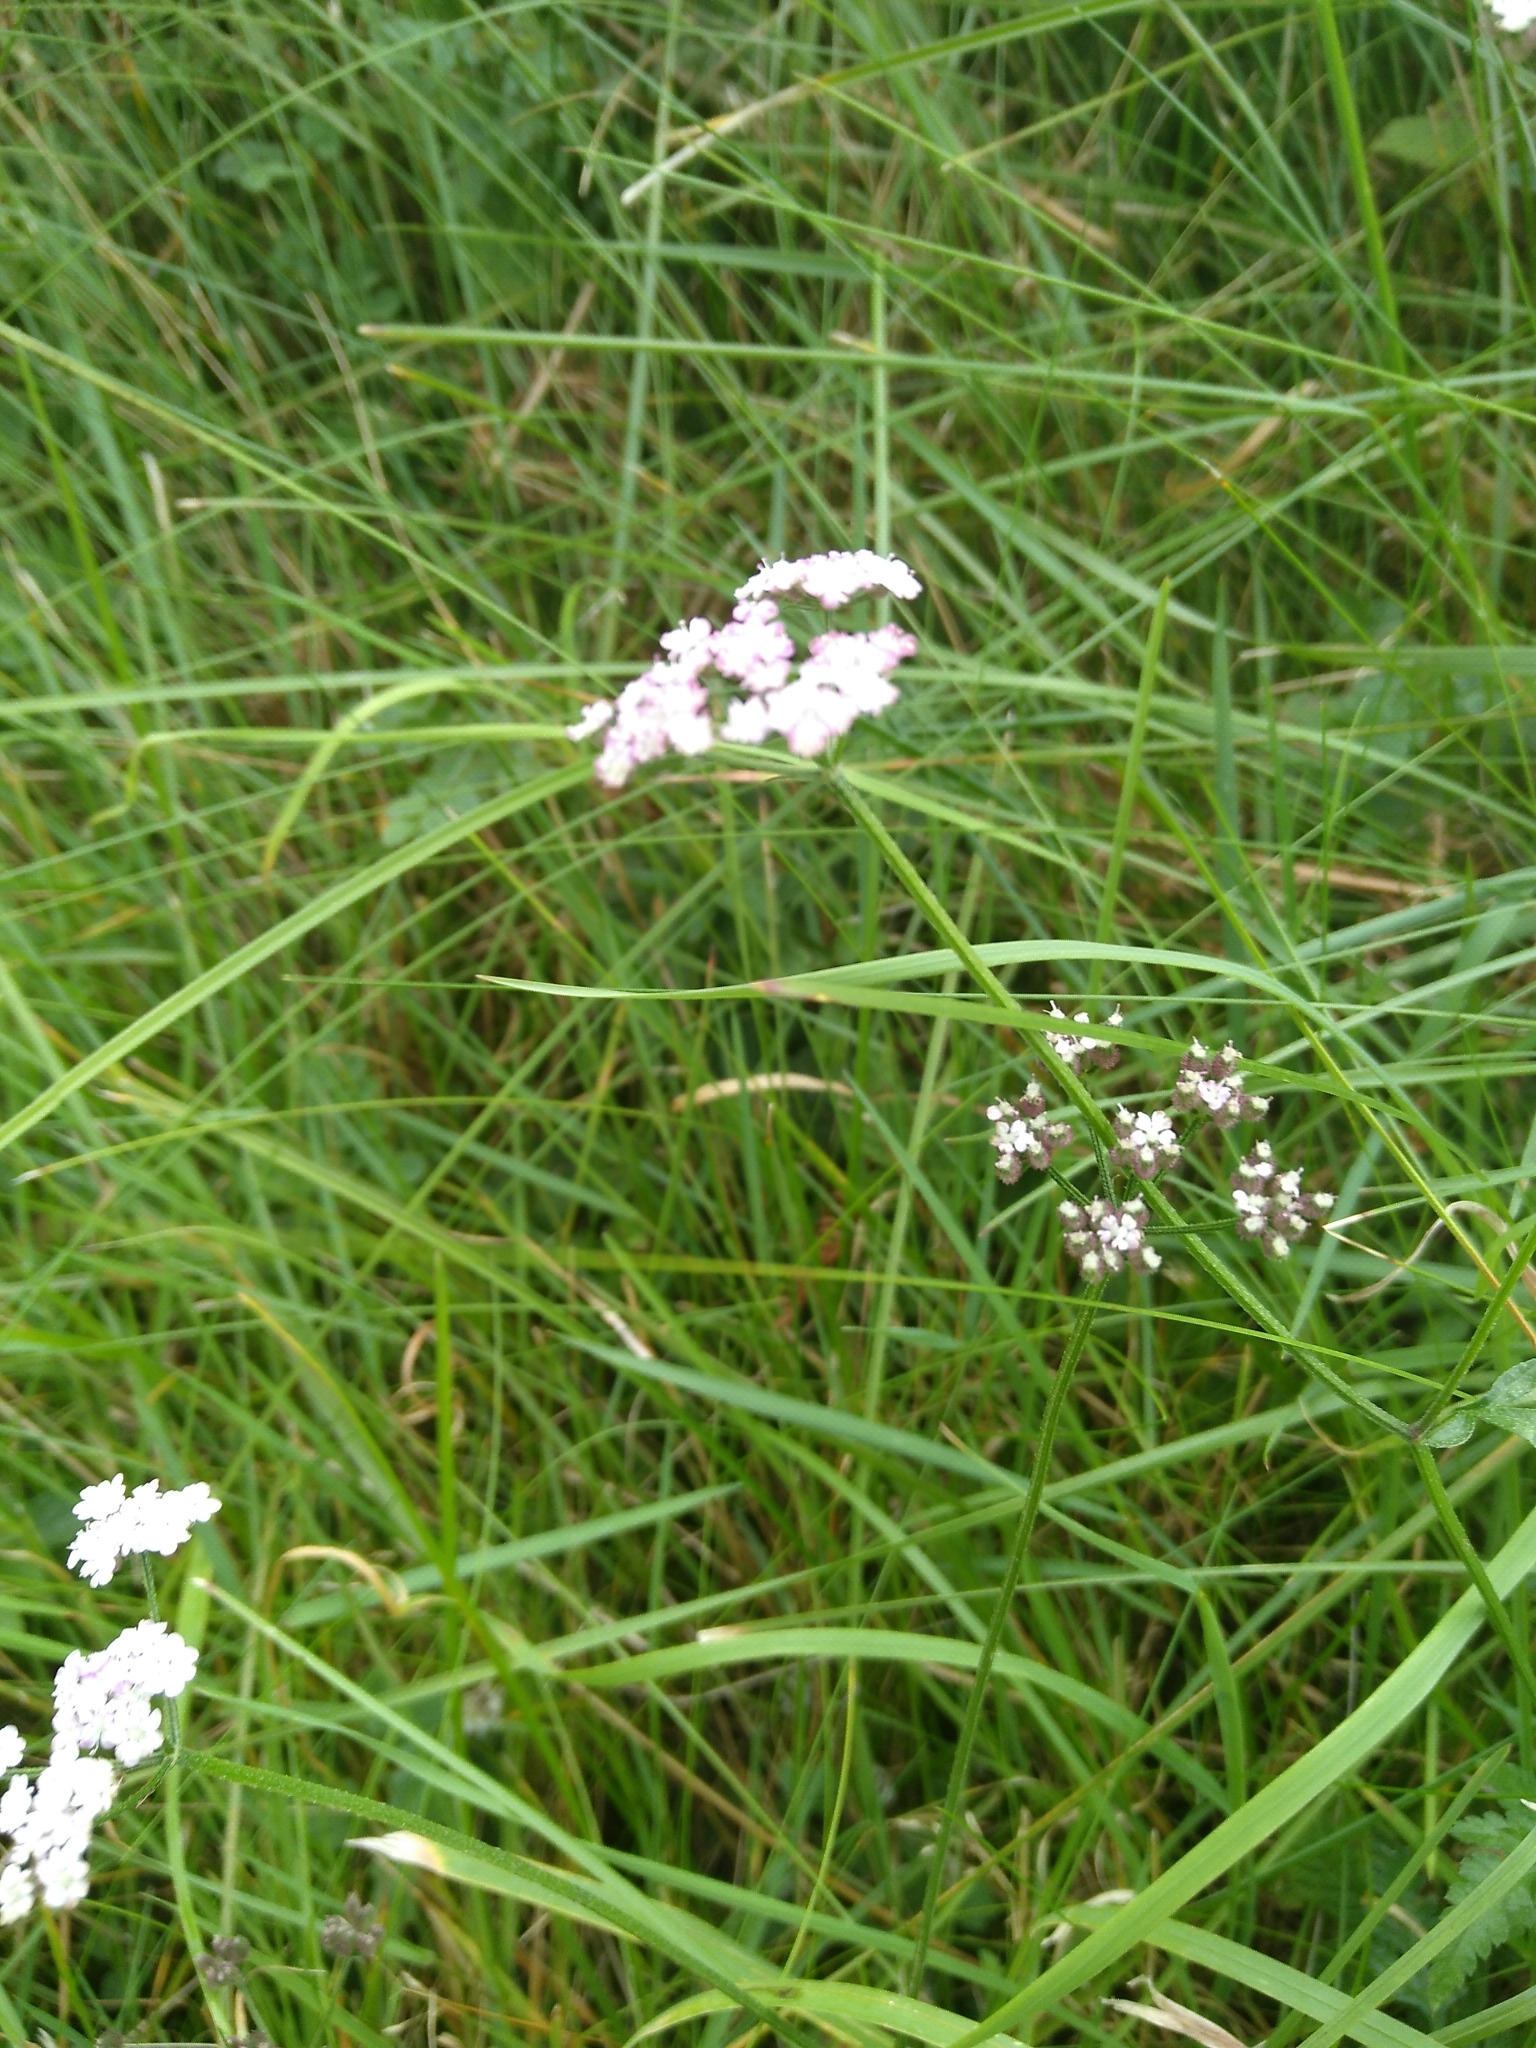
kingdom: Plantae
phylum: Tracheophyta
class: Magnoliopsida
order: Apiales
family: Apiaceae
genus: Torilis
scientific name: Torilis japonica
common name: Upright hedge-parsley
